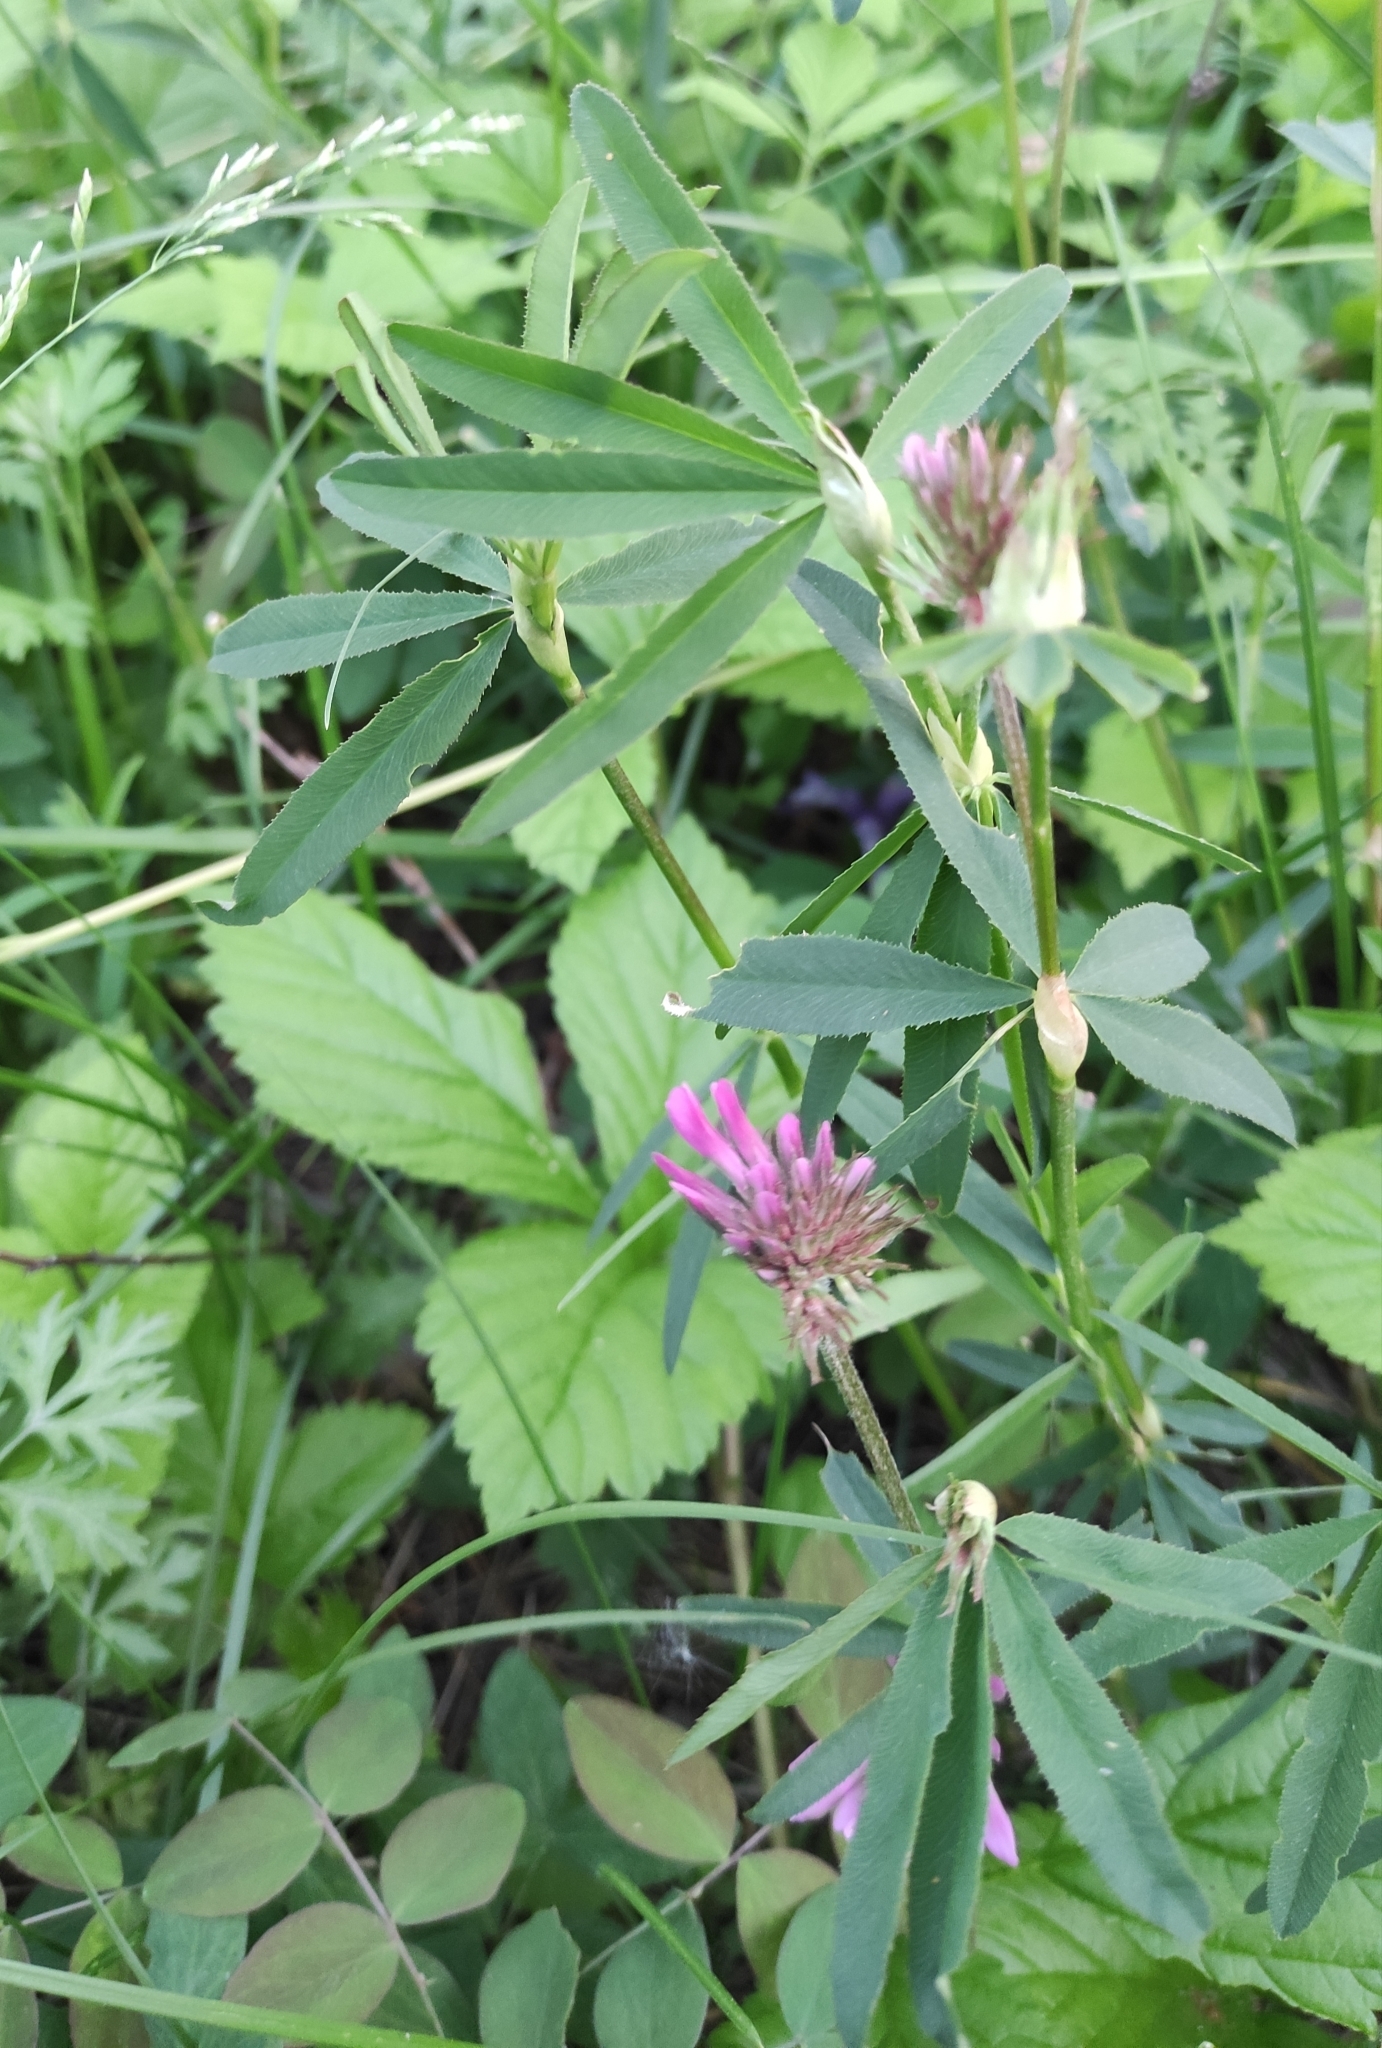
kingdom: Plantae
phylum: Tracheophyta
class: Magnoliopsida
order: Fabales
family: Fabaceae
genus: Trifolium
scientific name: Trifolium lupinaster
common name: Lupine clover
